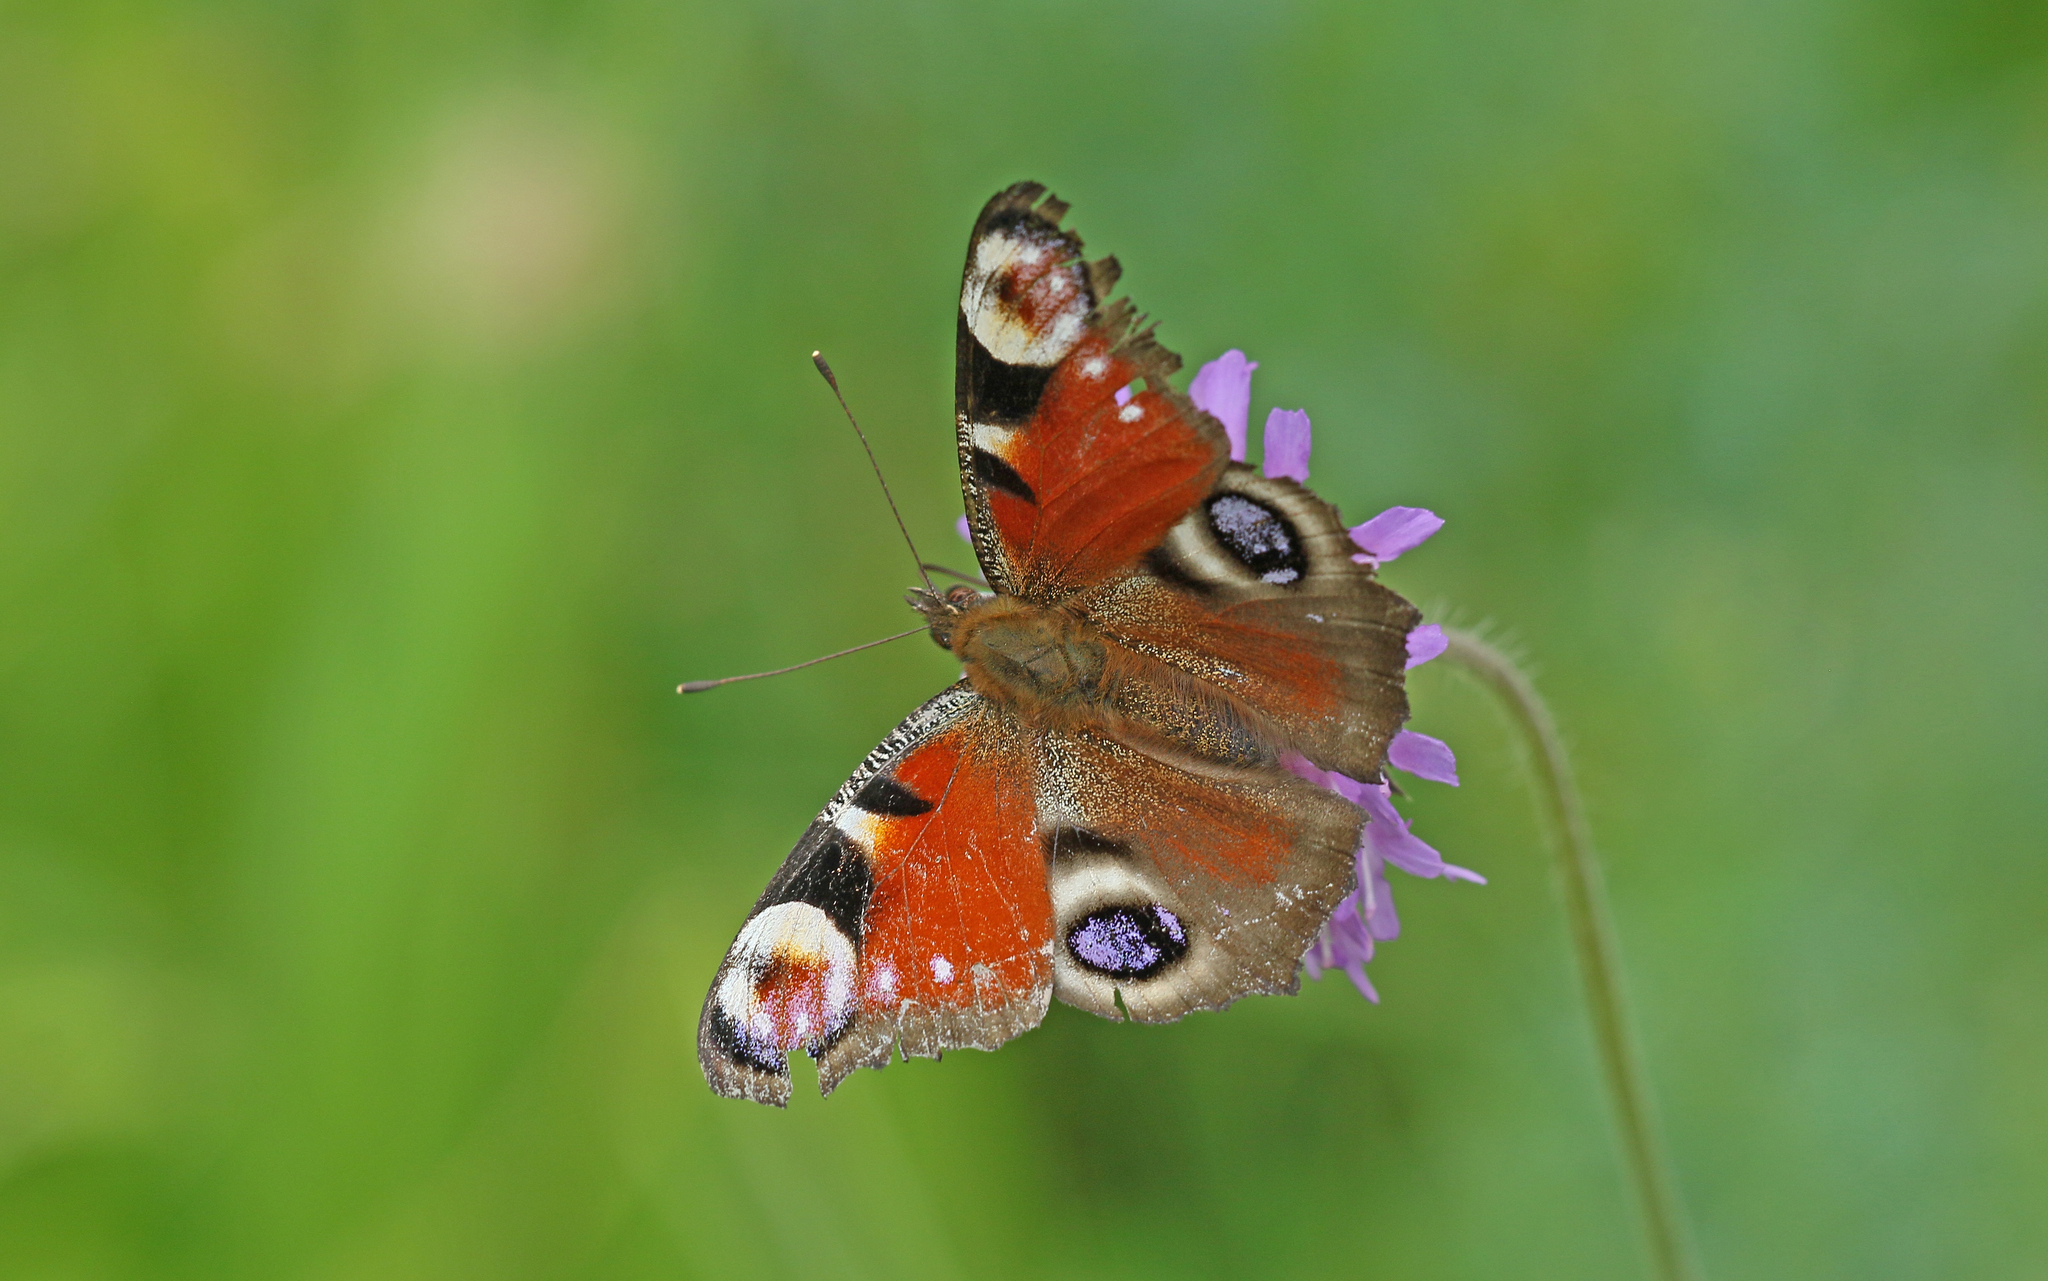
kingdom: Animalia
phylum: Arthropoda
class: Insecta
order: Lepidoptera
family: Nymphalidae
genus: Aglais
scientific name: Aglais io
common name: Peacock
